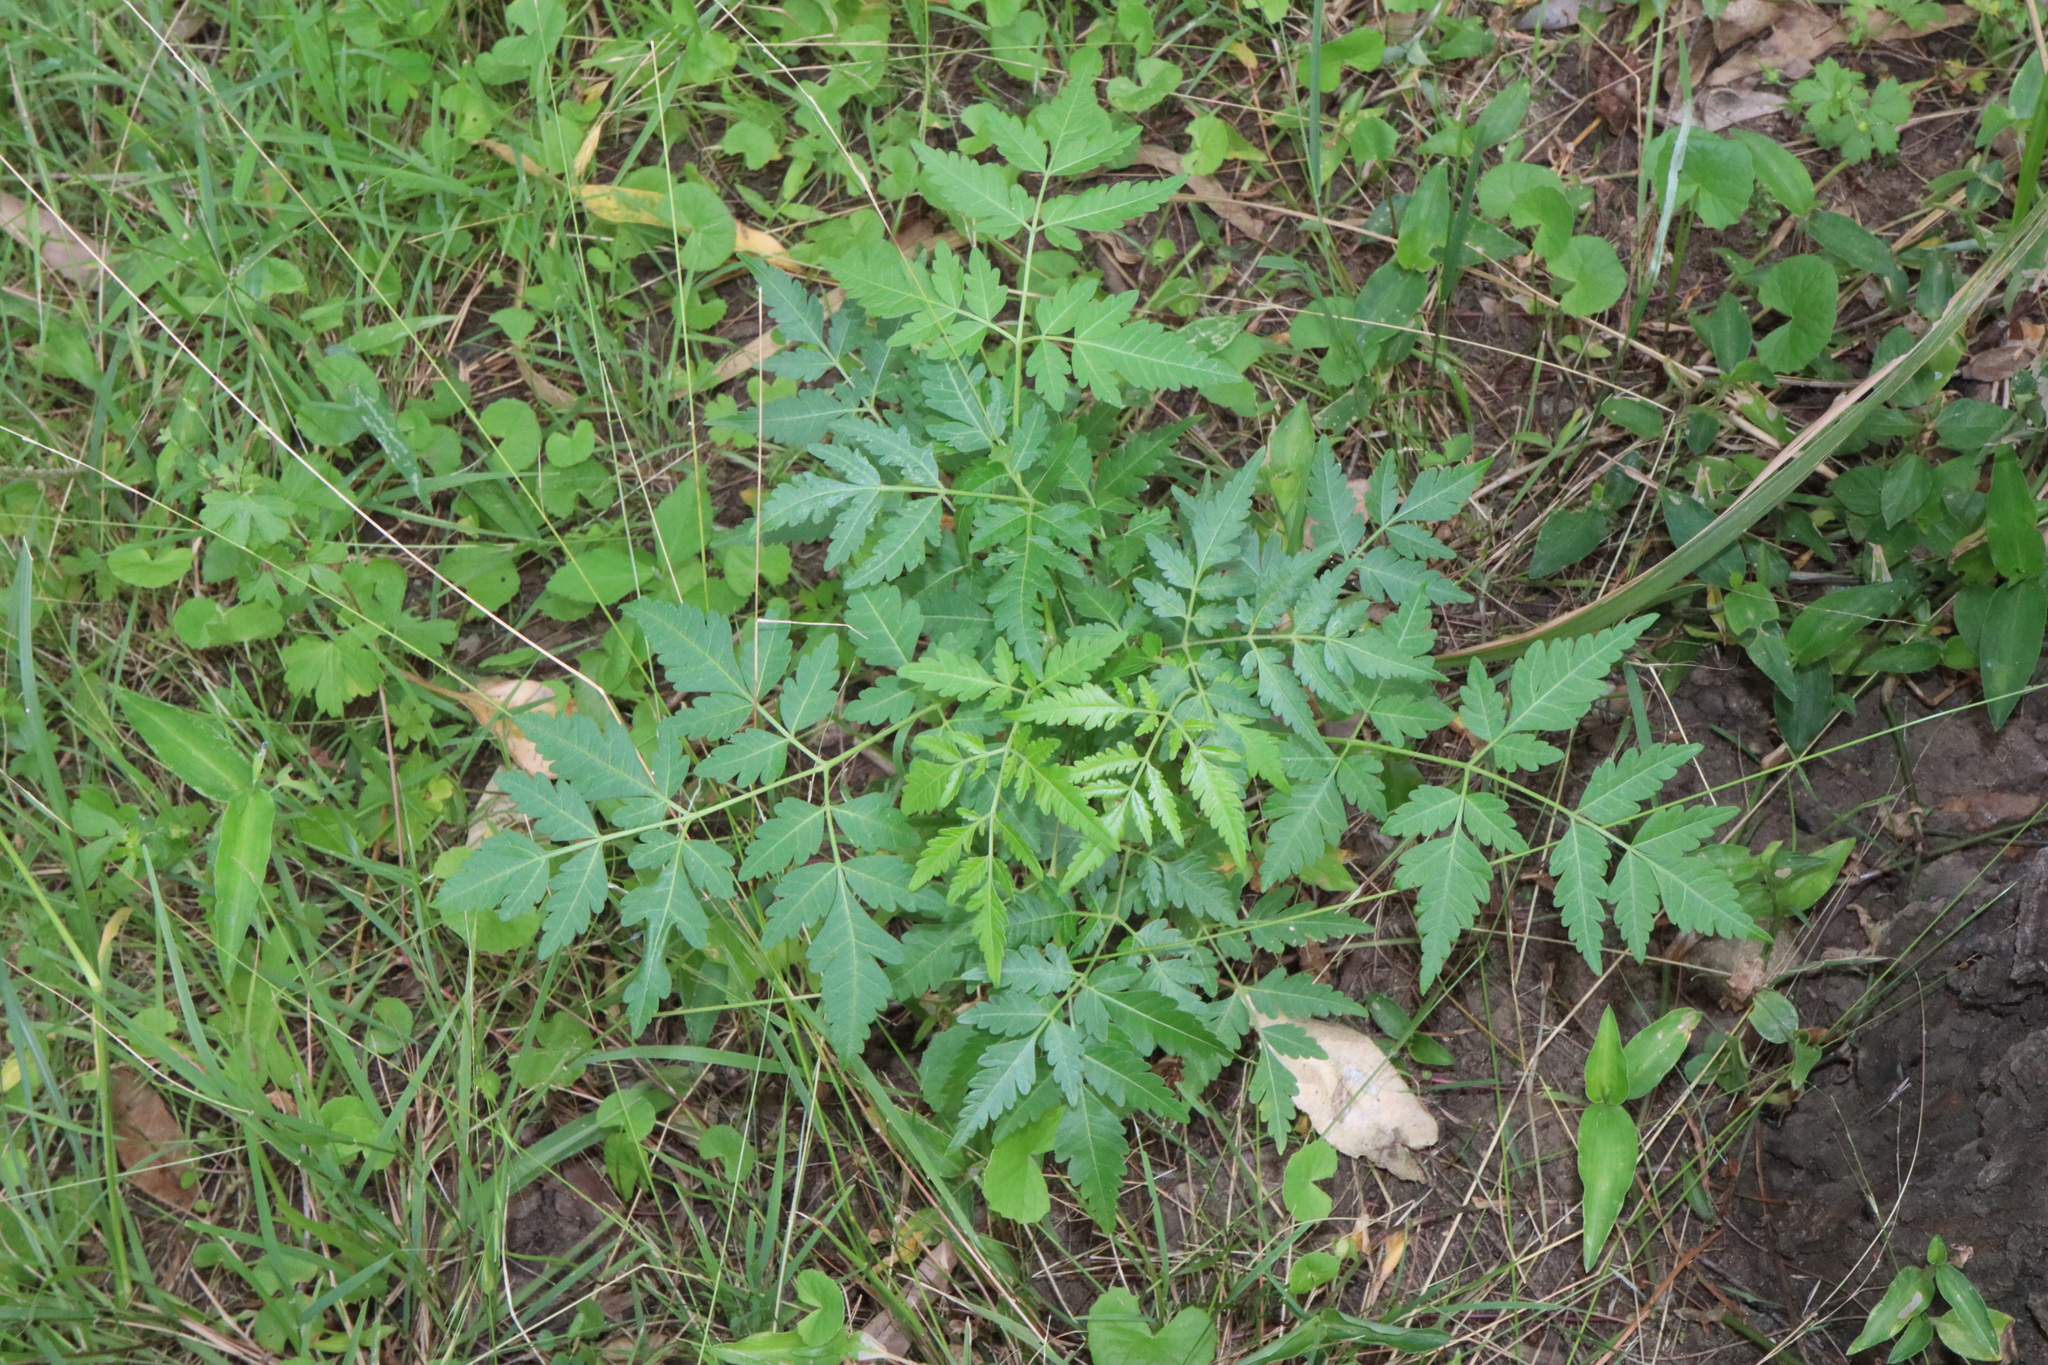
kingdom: Plantae
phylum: Tracheophyta
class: Magnoliopsida
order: Sapindales
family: Meliaceae
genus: Melia
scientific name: Melia azedarach
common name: Chinaberrytree
